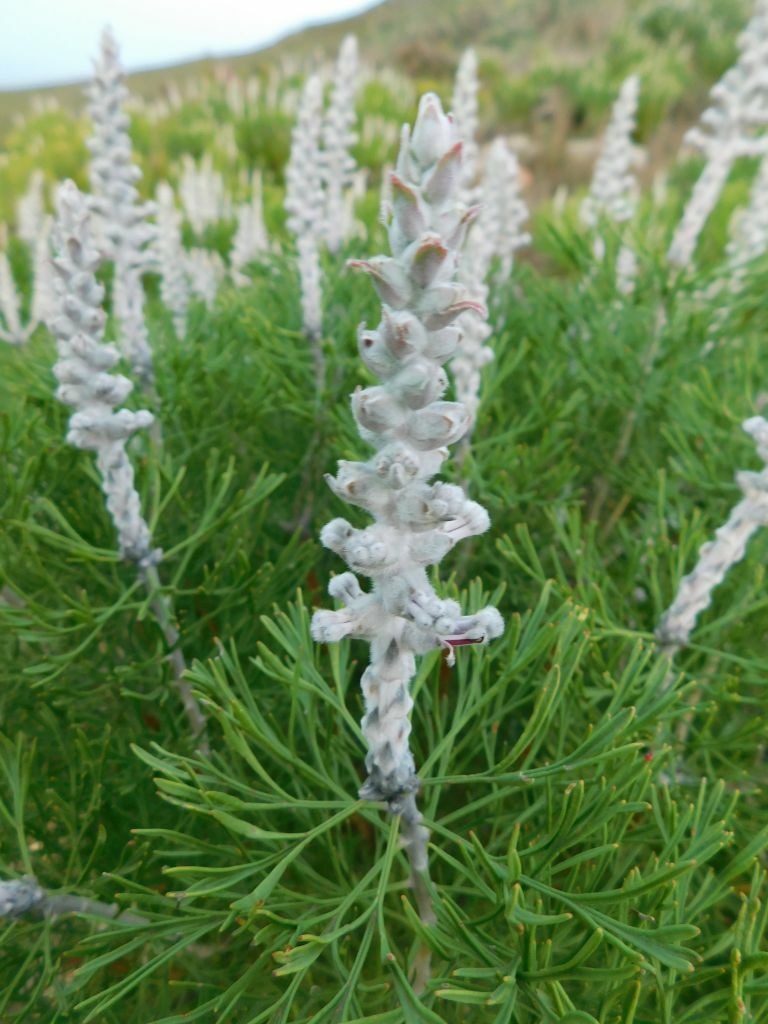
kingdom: Plantae
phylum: Tracheophyta
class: Magnoliopsida
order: Proteales
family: Proteaceae
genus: Paranomus
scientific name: Paranomus dispersus
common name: Long-head sceptre
